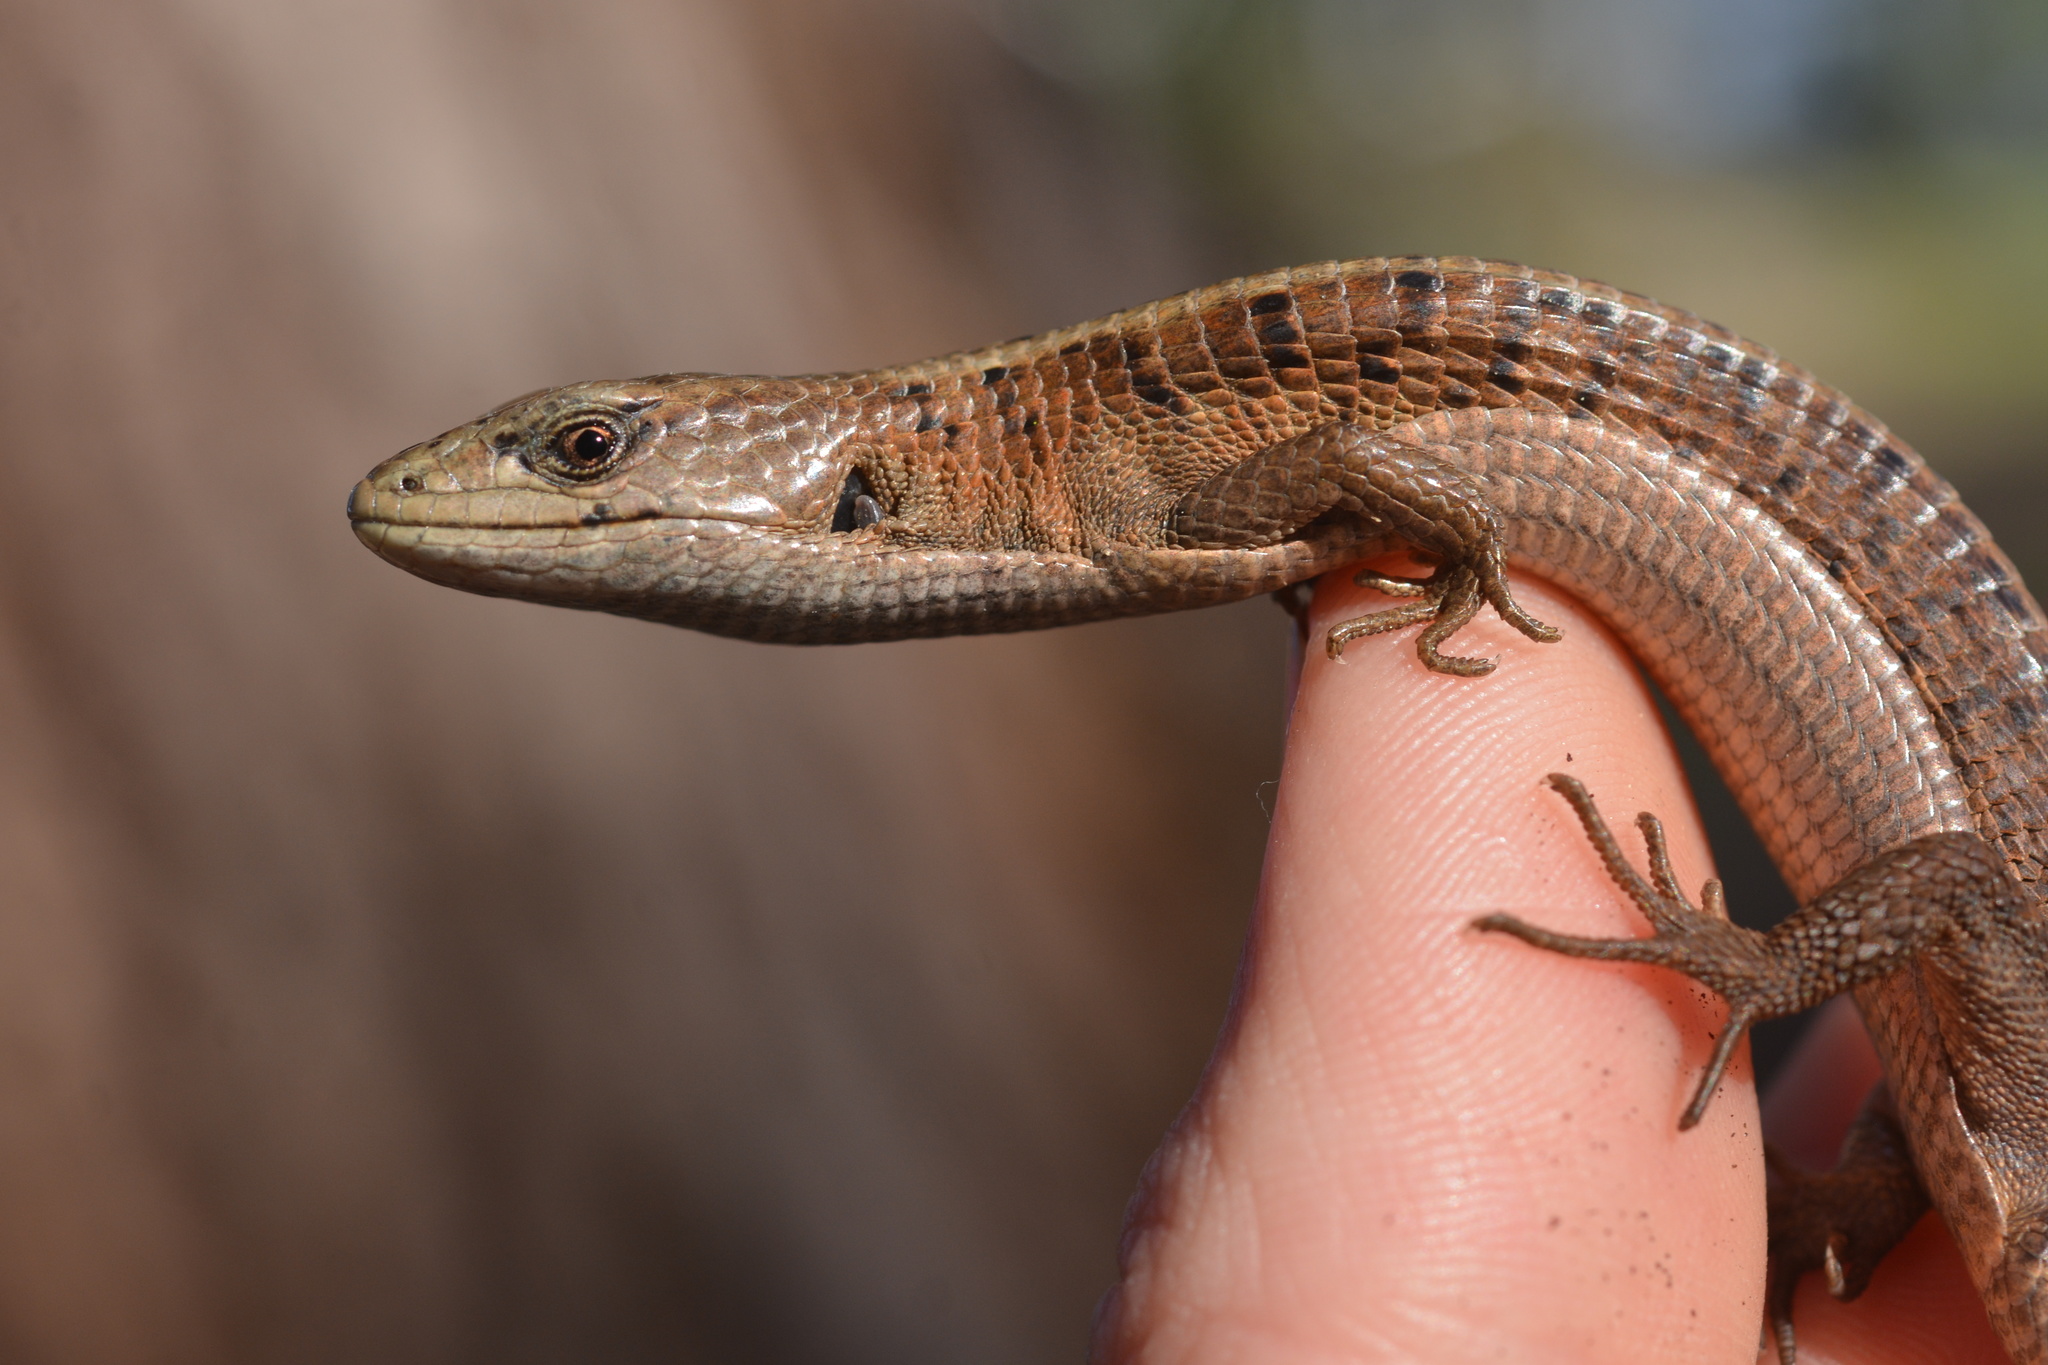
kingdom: Animalia
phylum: Chordata
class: Squamata
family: Anguidae
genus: Elgaria
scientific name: Elgaria coerulea
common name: Northern alligator lizard
